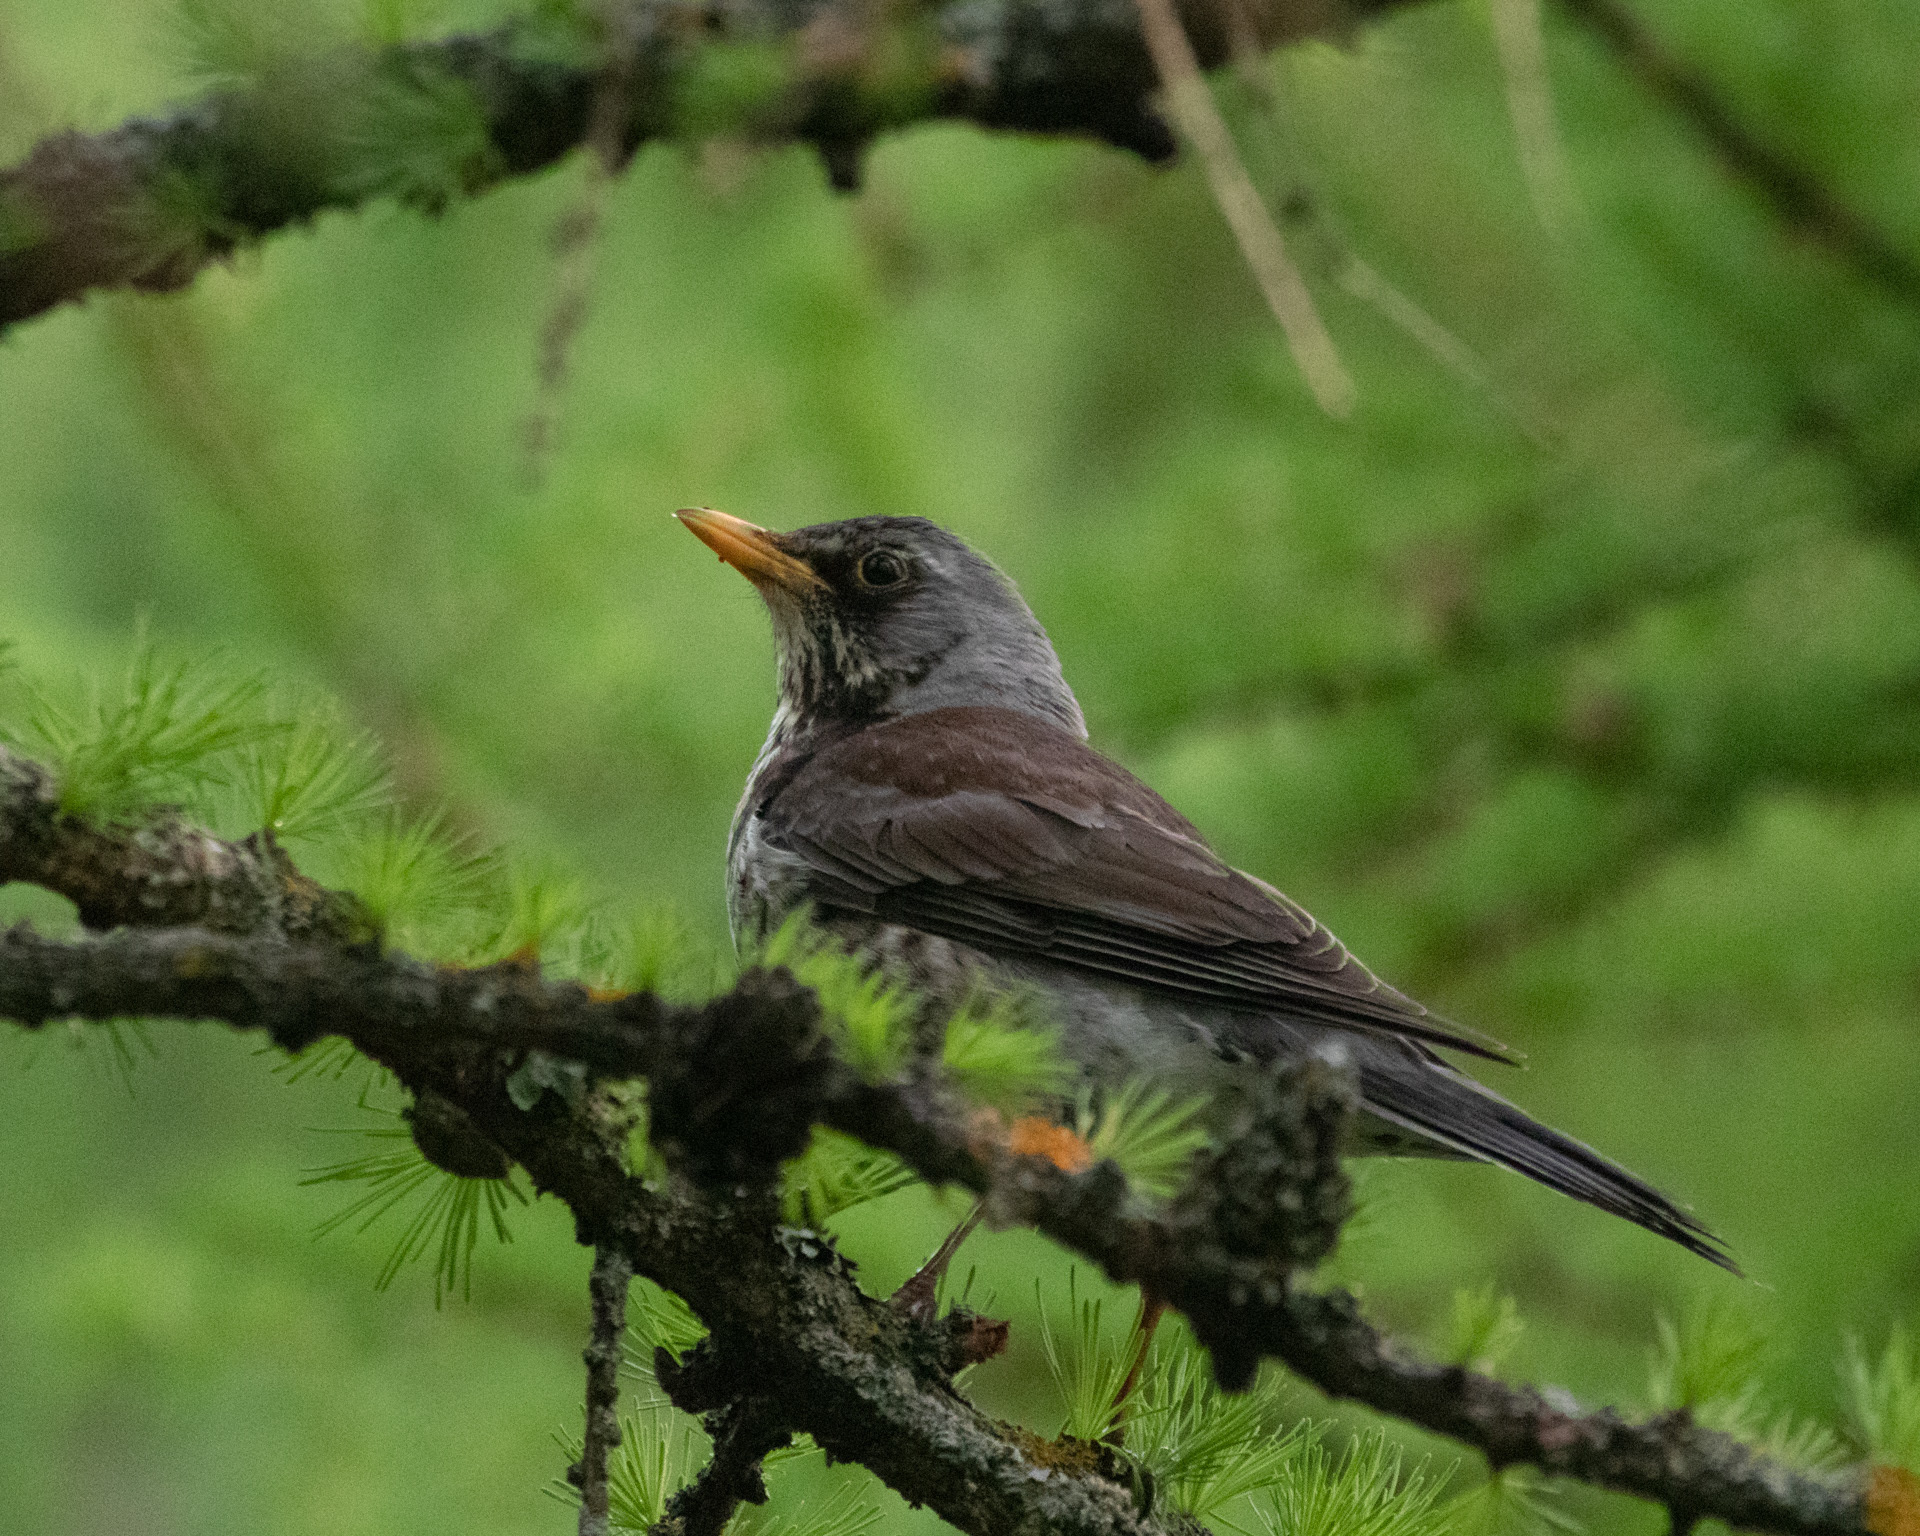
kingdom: Animalia
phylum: Chordata
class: Aves
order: Passeriformes
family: Turdidae
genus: Turdus
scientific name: Turdus pilaris
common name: Fieldfare
